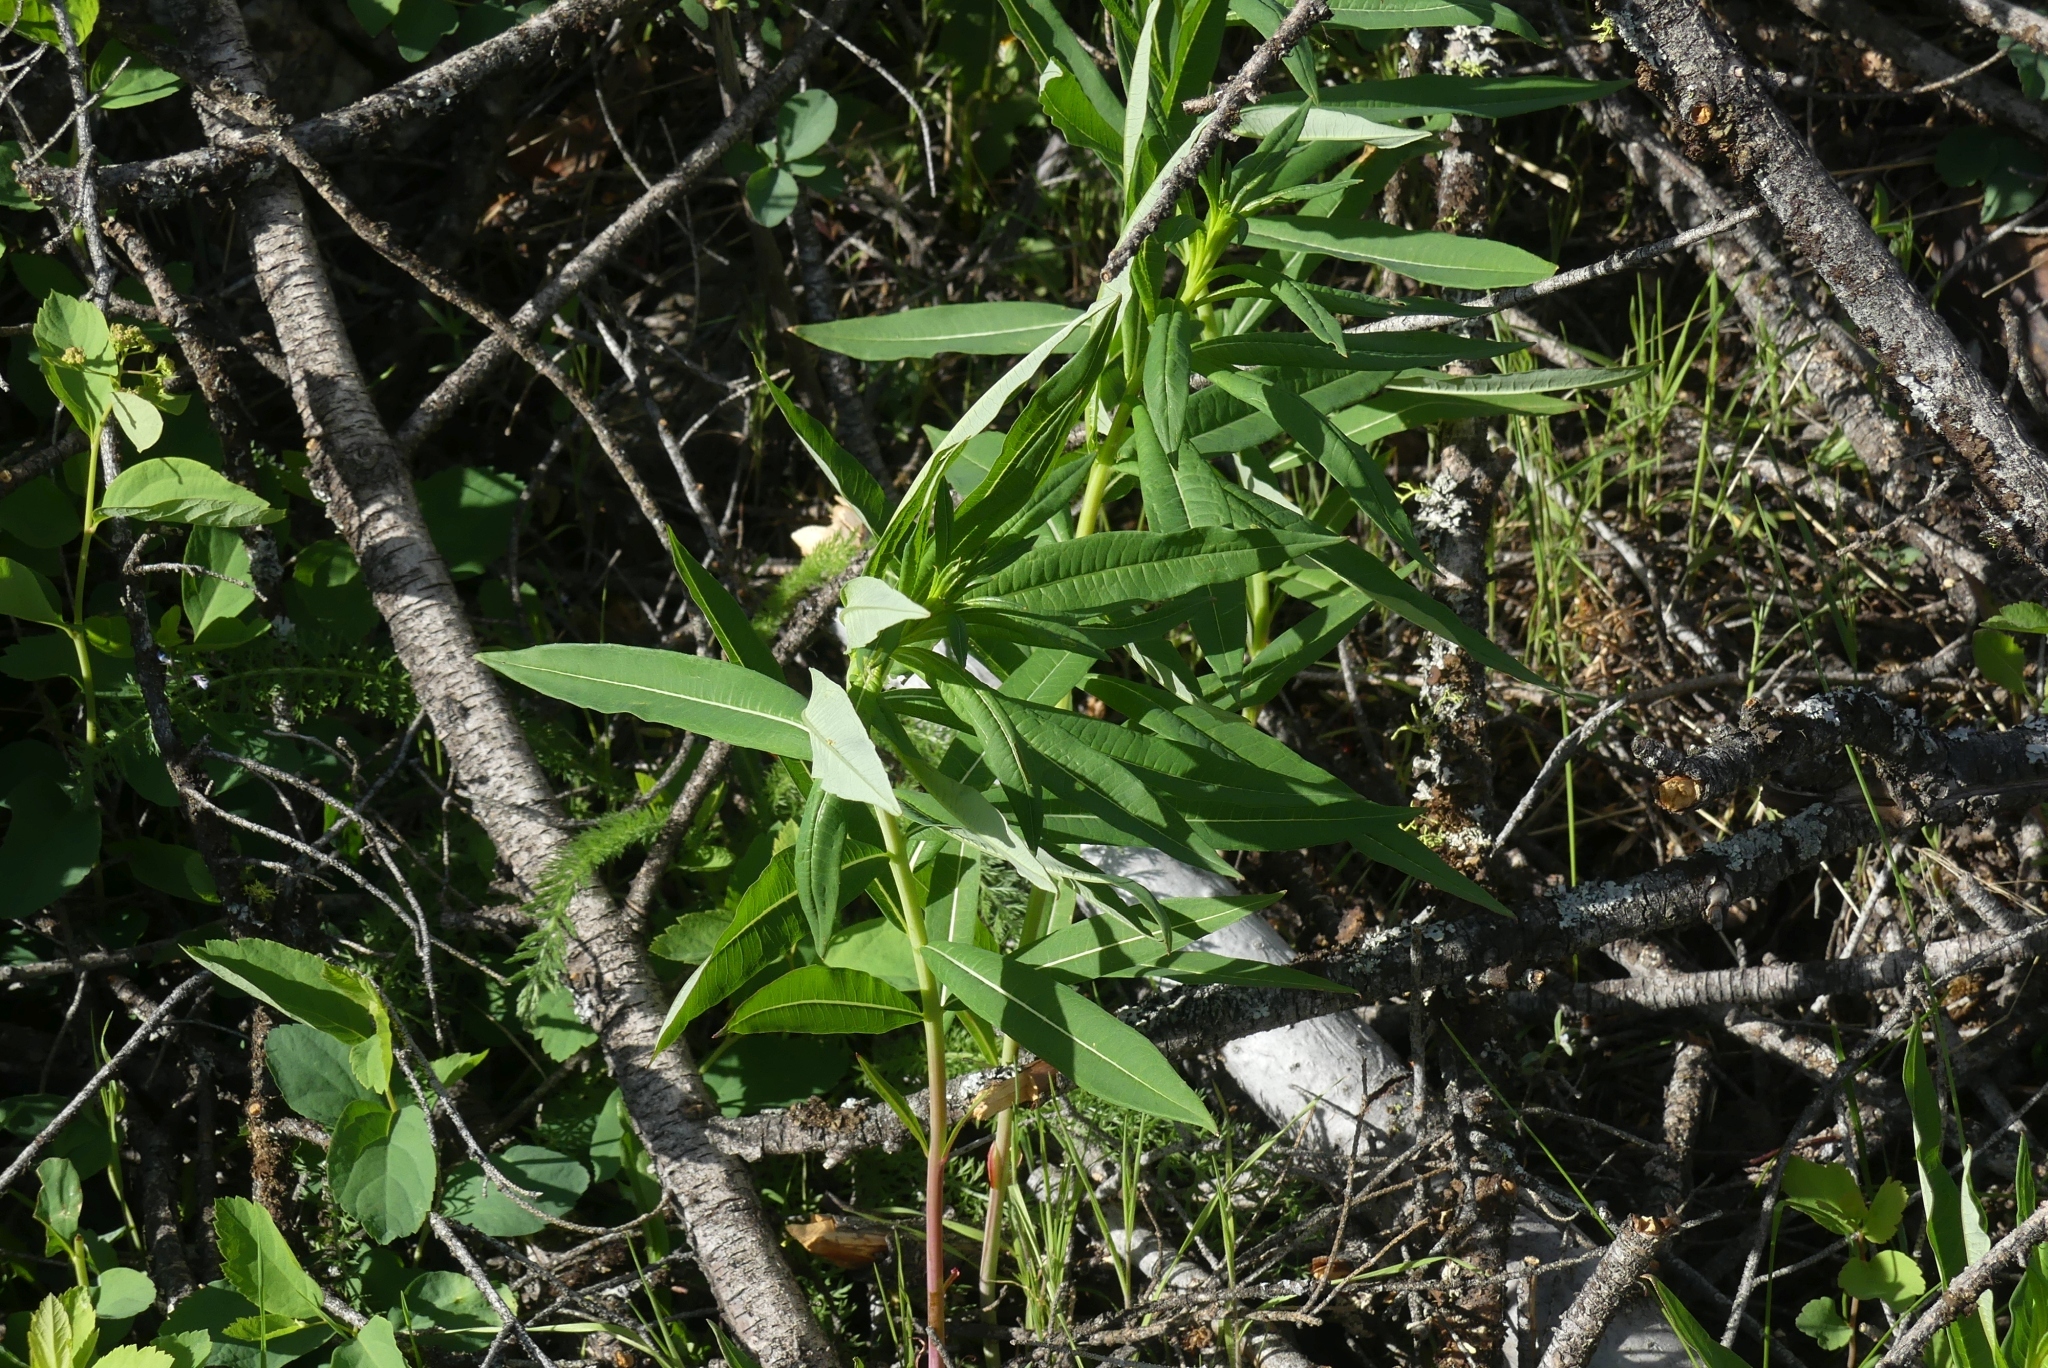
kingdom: Plantae
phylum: Tracheophyta
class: Magnoliopsida
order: Myrtales
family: Onagraceae
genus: Chamaenerion
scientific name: Chamaenerion angustifolium
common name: Fireweed
